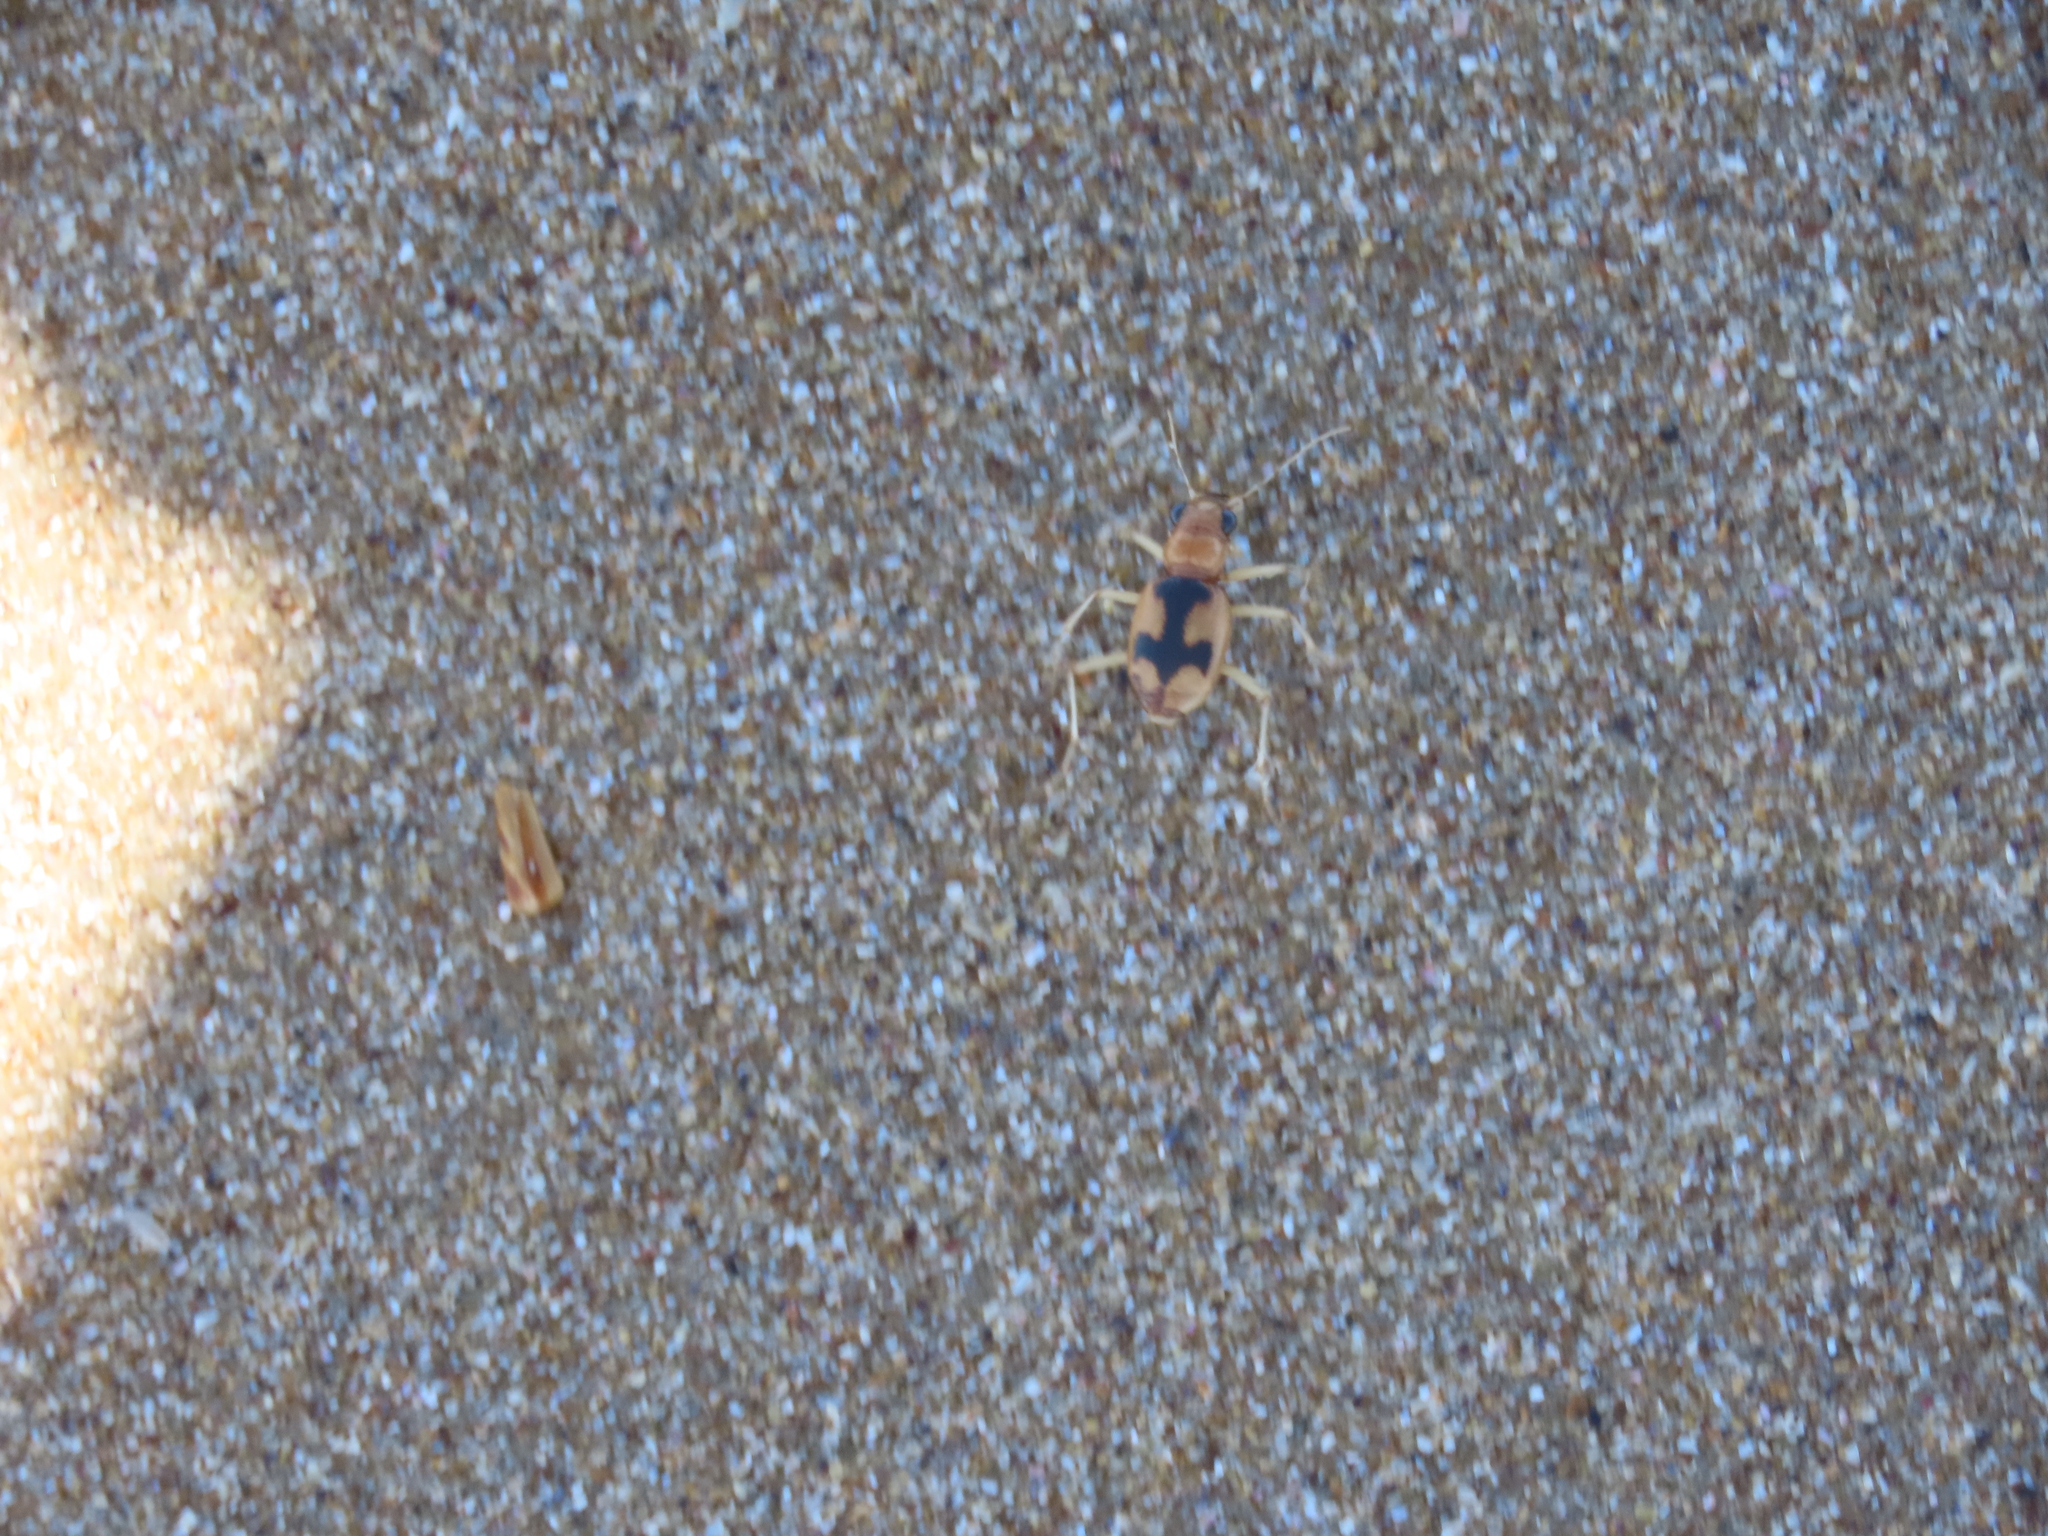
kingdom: Animalia
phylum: Arthropoda
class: Insecta
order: Coleoptera
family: Carabidae
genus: Phaeoxantha
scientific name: Phaeoxantha cruciata
